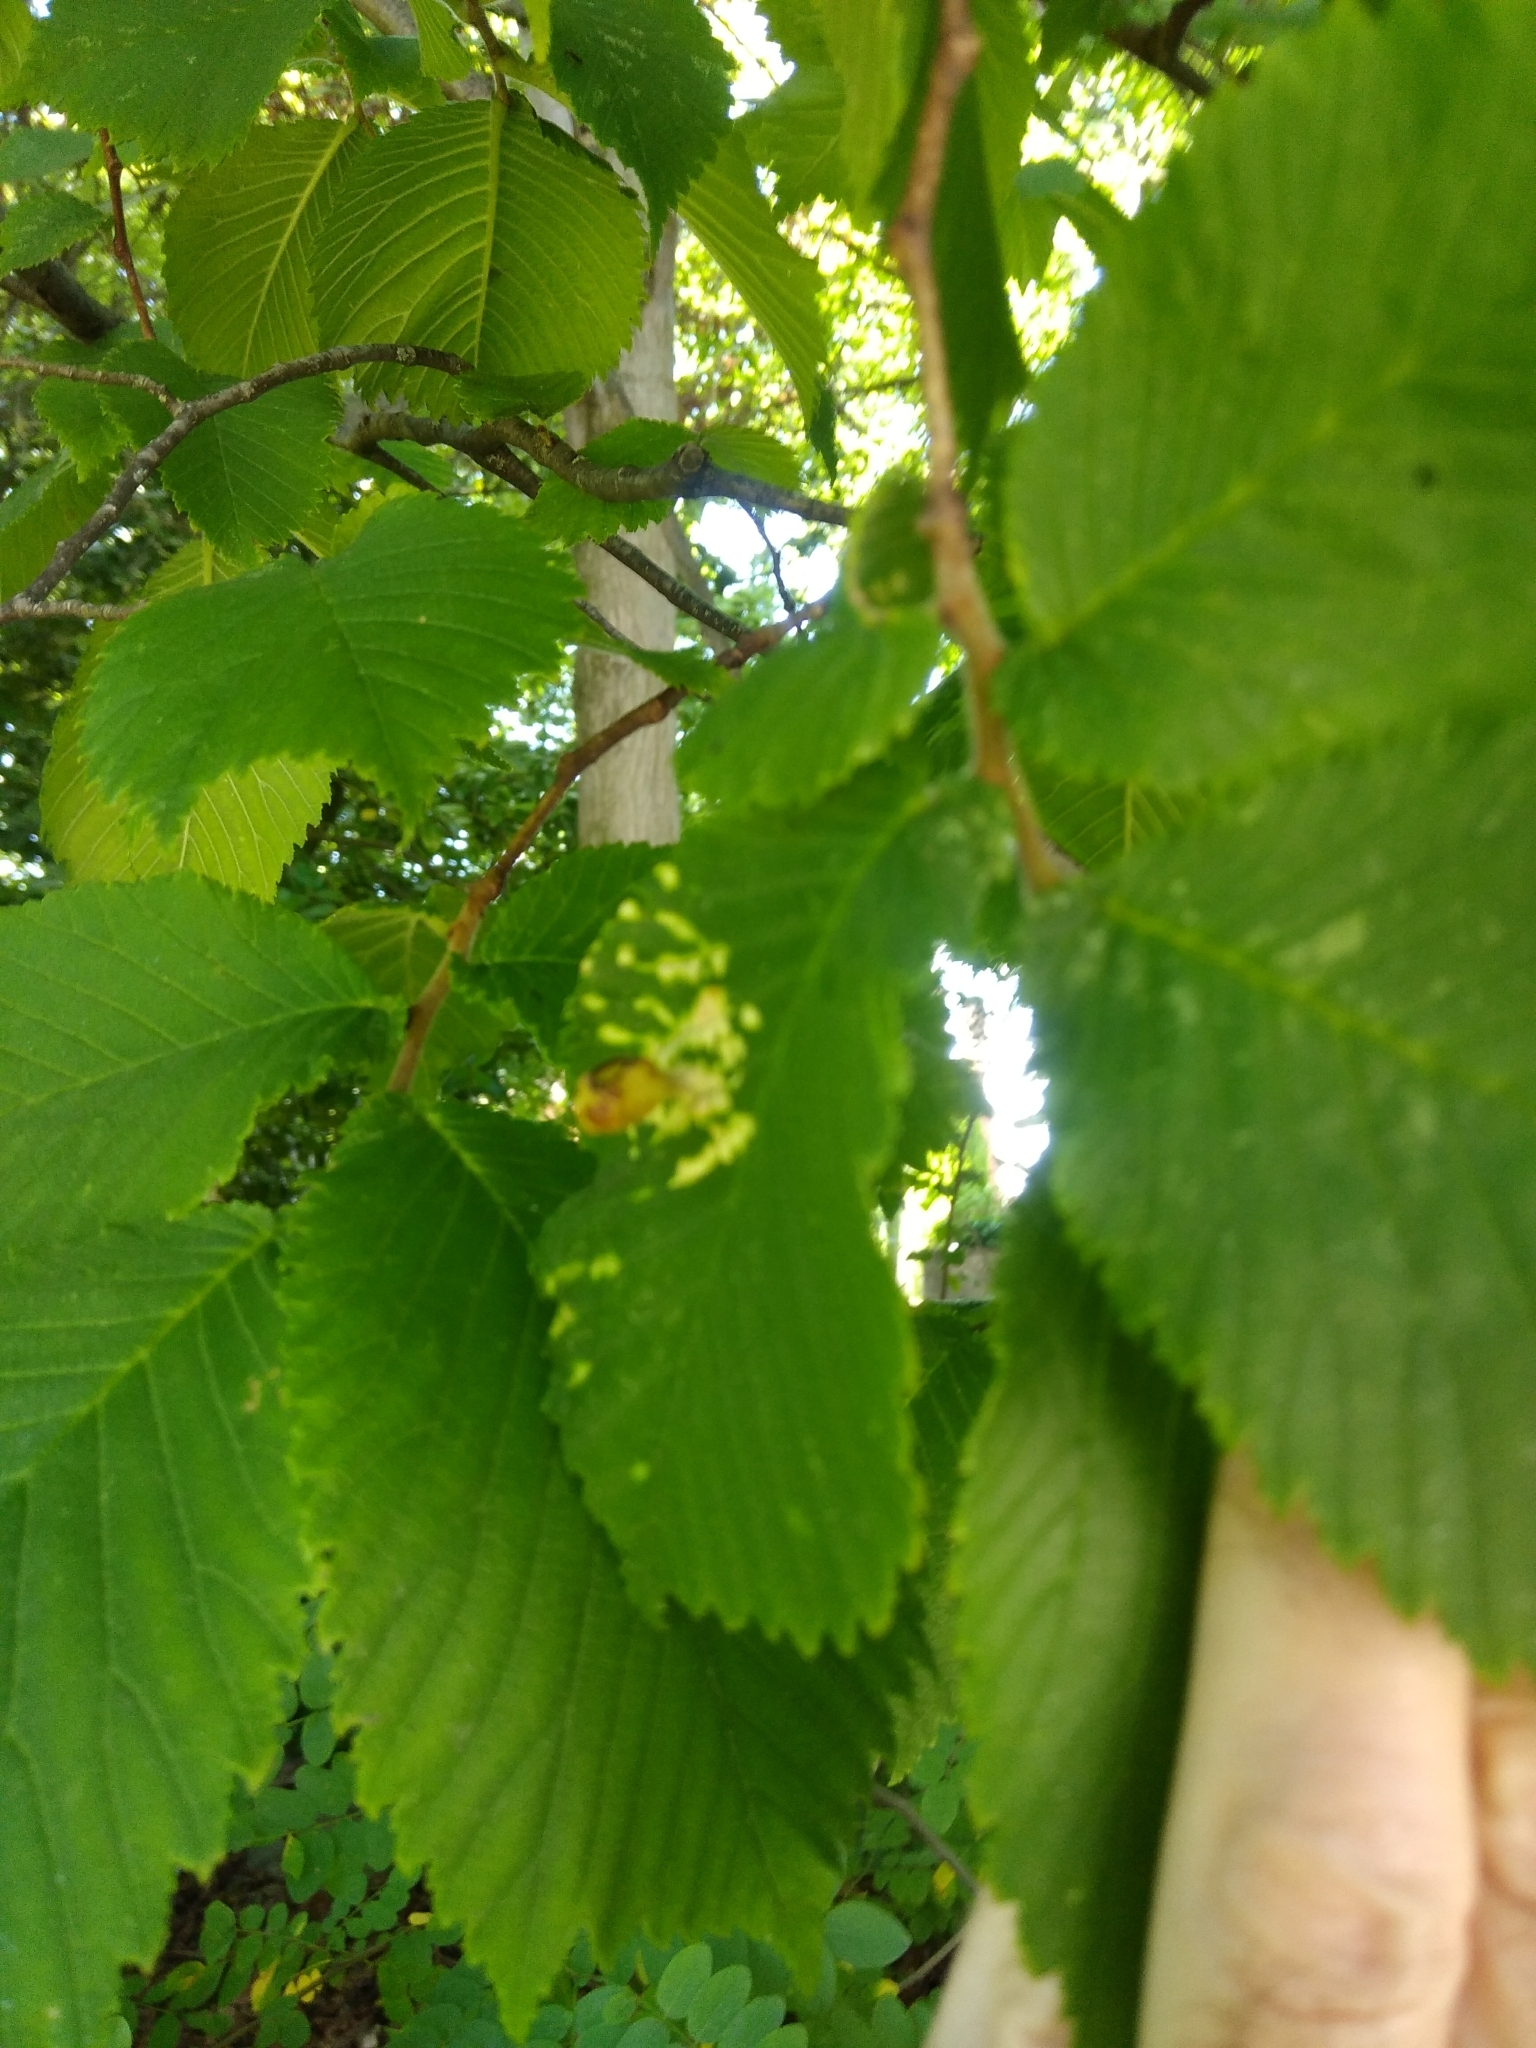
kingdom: Animalia
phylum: Arthropoda
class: Insecta
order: Hemiptera
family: Aphididae
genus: Tetraneura
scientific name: Tetraneura ulmi
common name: Aphid
